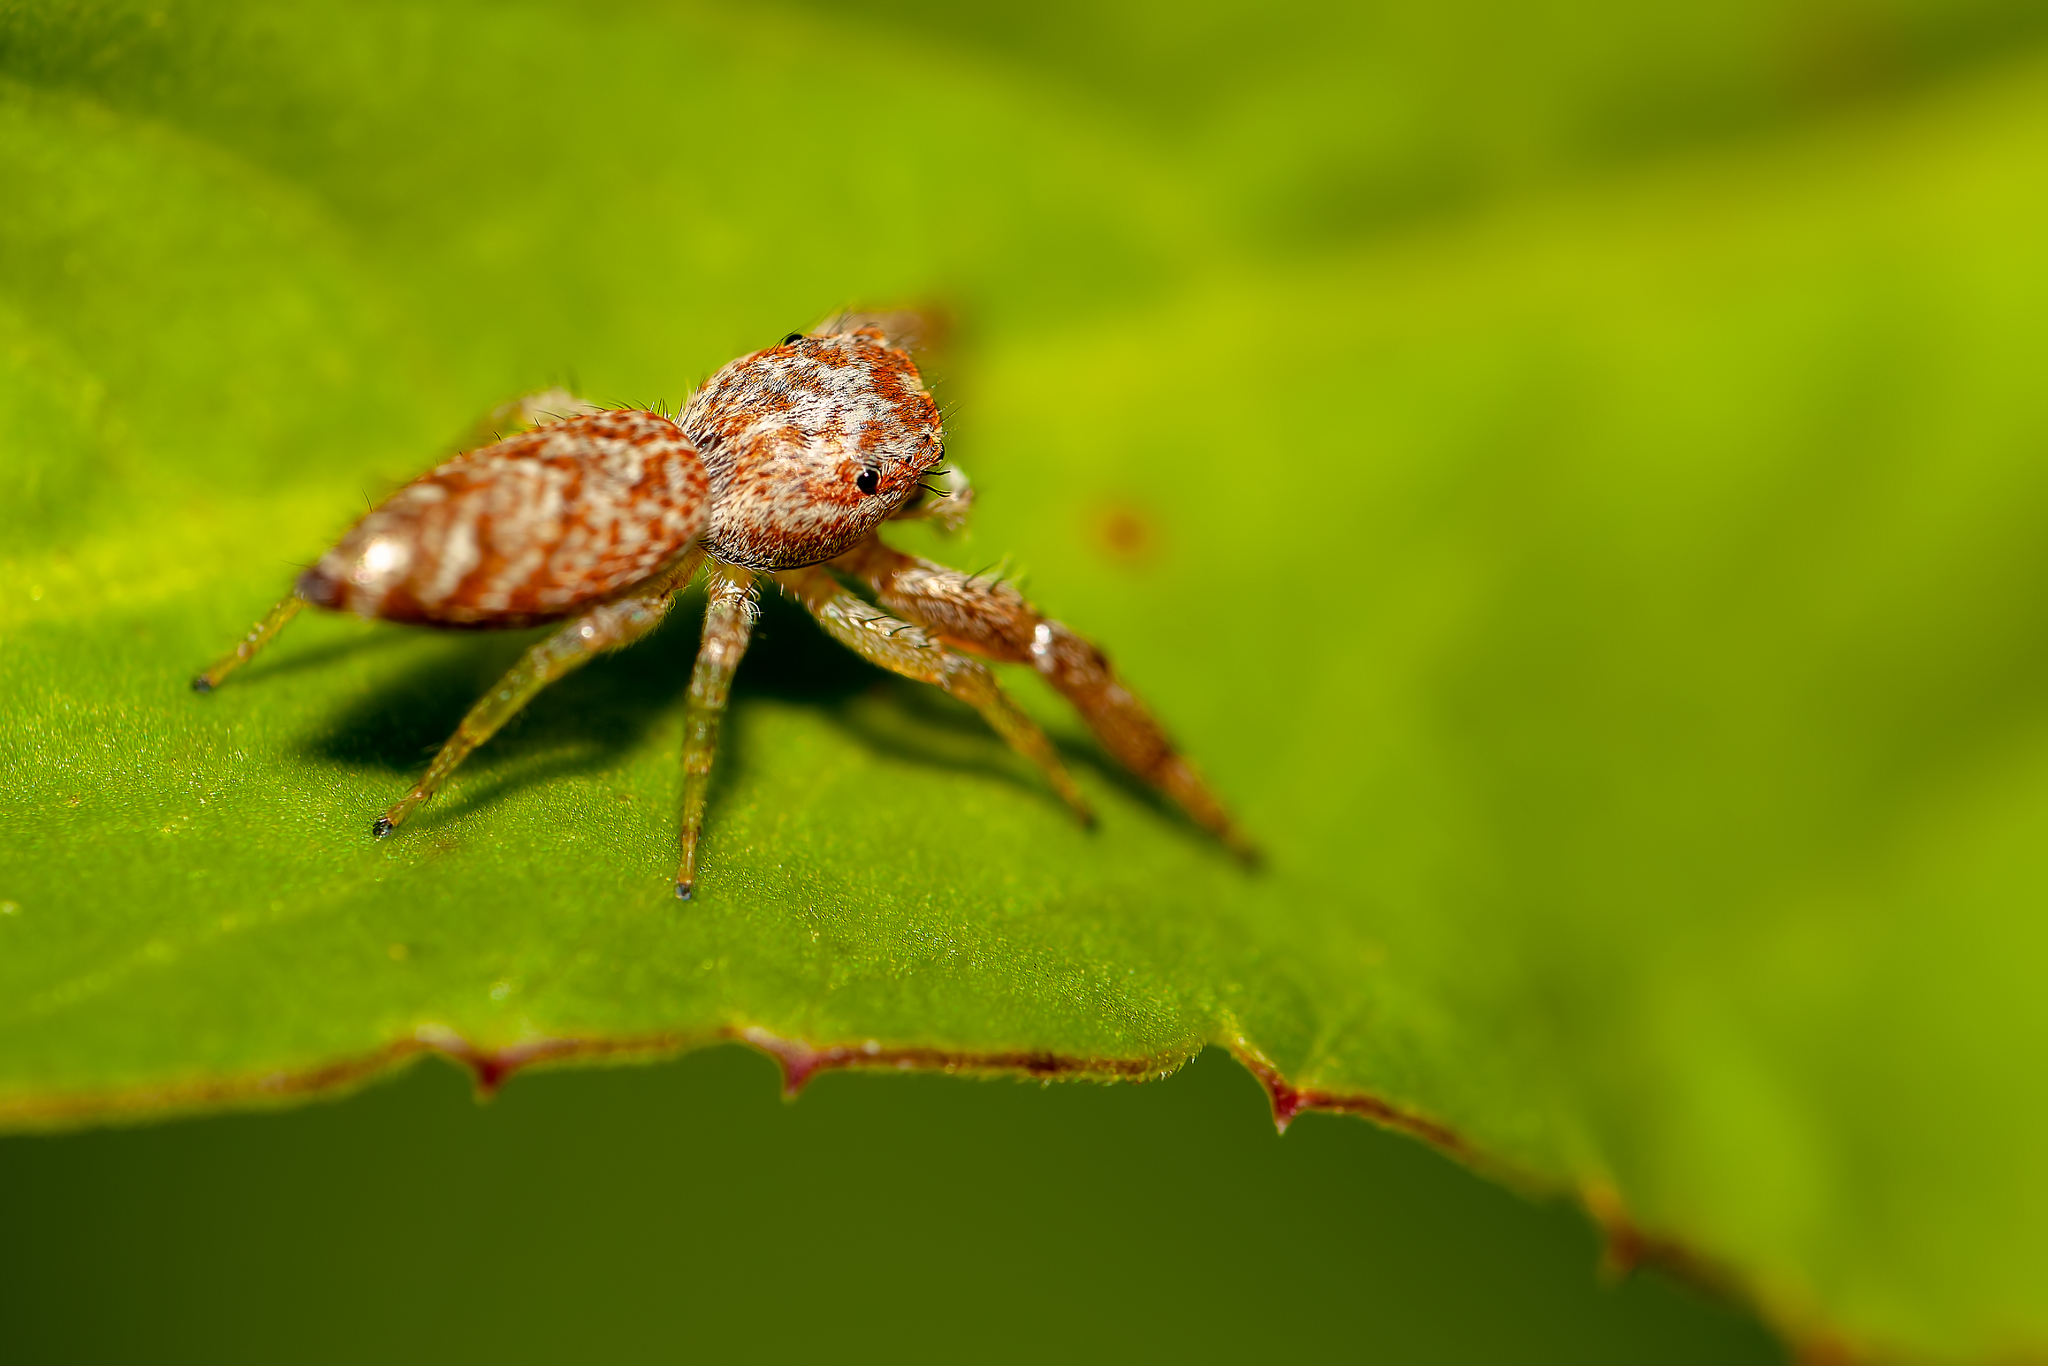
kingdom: Animalia
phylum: Arthropoda
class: Arachnida
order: Araneae
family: Salticidae
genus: Hentzia
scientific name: Hentzia palmarum
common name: Common hentz jumping spider
